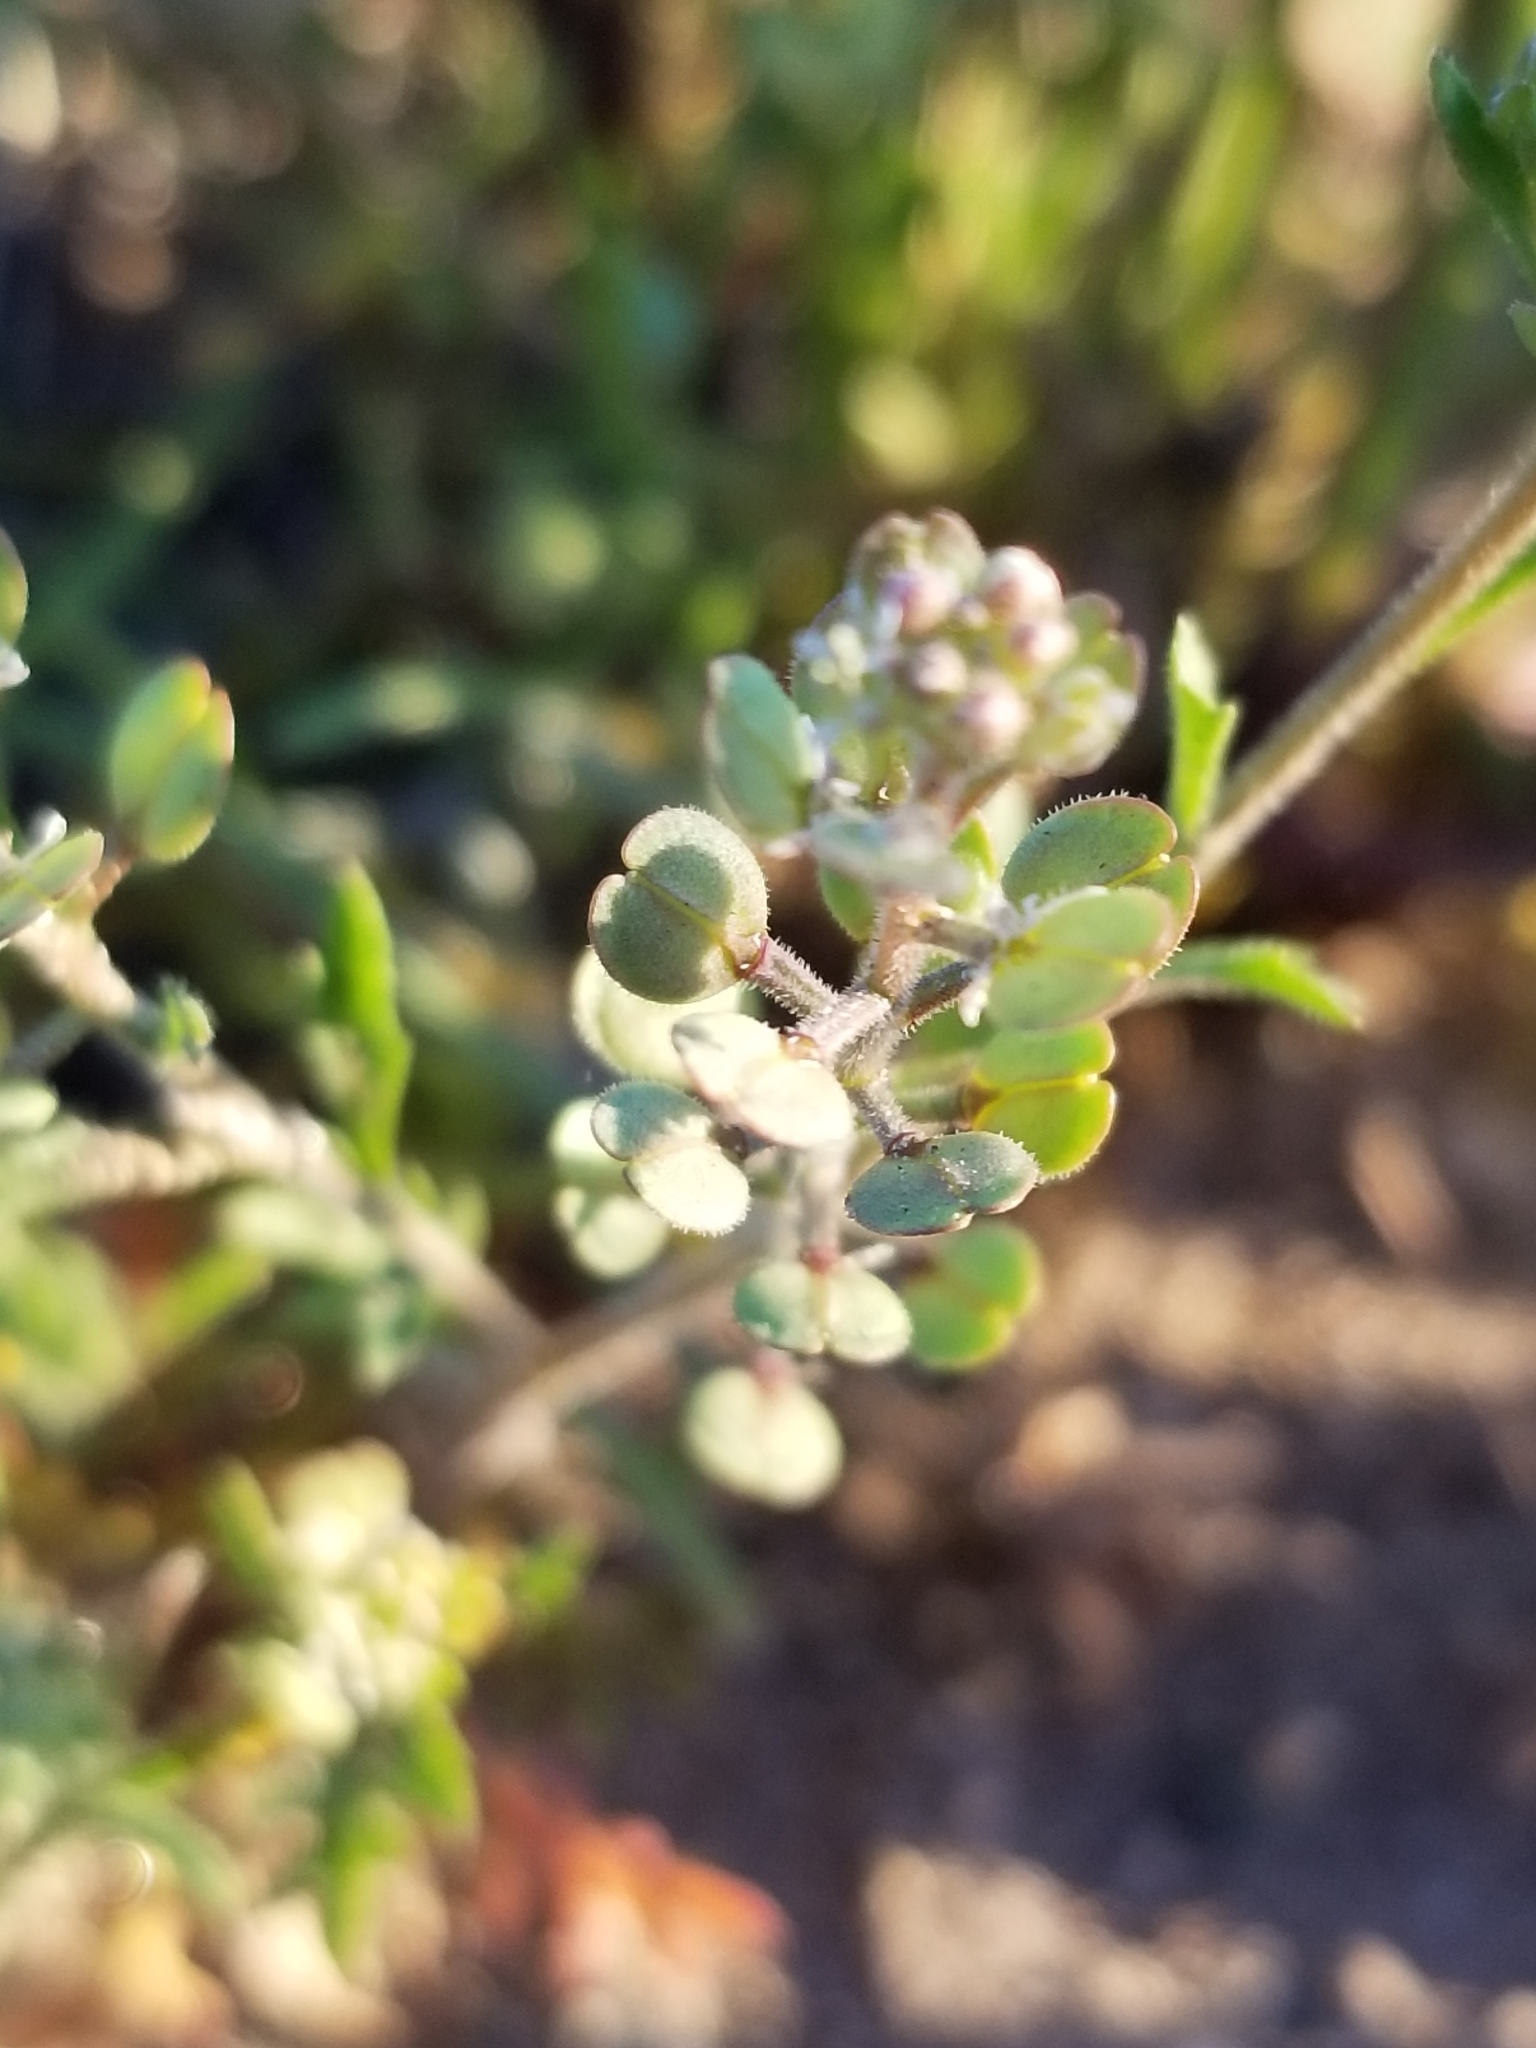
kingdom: Plantae
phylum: Tracheophyta
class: Magnoliopsida
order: Brassicales
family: Brassicaceae
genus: Lepidium
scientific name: Lepidium lasiocarpum
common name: Hairy-pod pepperwort
